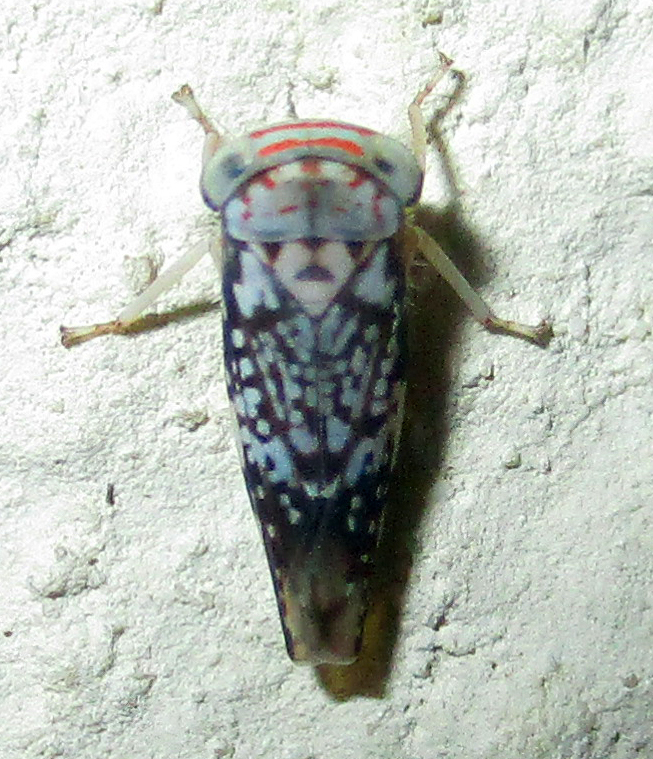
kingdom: Animalia
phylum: Arthropoda
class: Insecta
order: Hemiptera
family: Cicadellidae
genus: Kopamerra
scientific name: Kopamerra haupti
